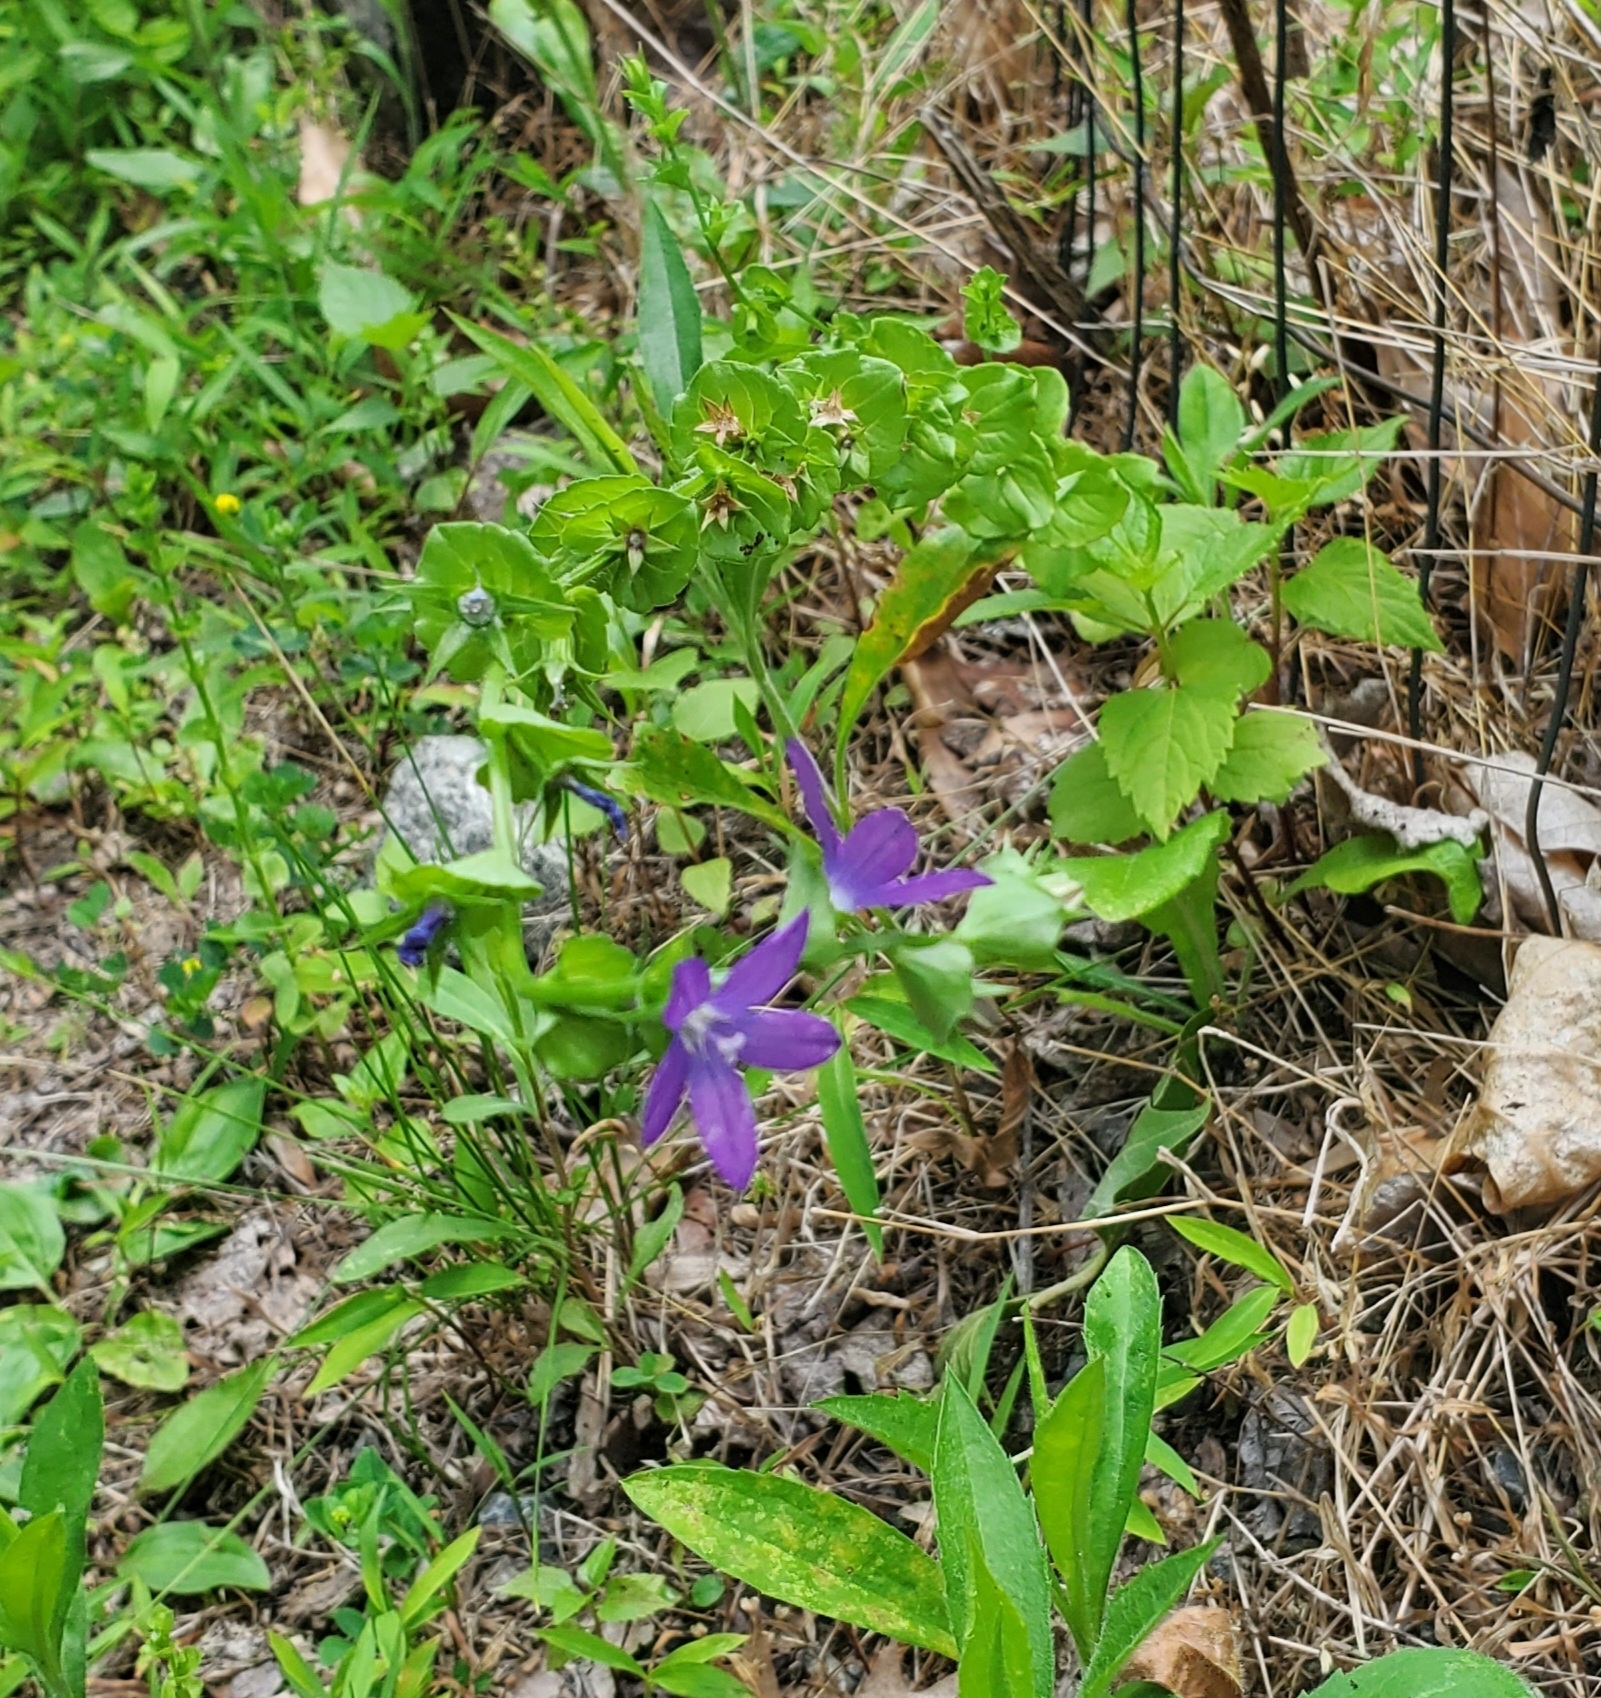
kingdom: Plantae
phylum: Tracheophyta
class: Magnoliopsida
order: Asterales
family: Campanulaceae
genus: Triodanis
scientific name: Triodanis perfoliata
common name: Clasping venus' looking-glass
